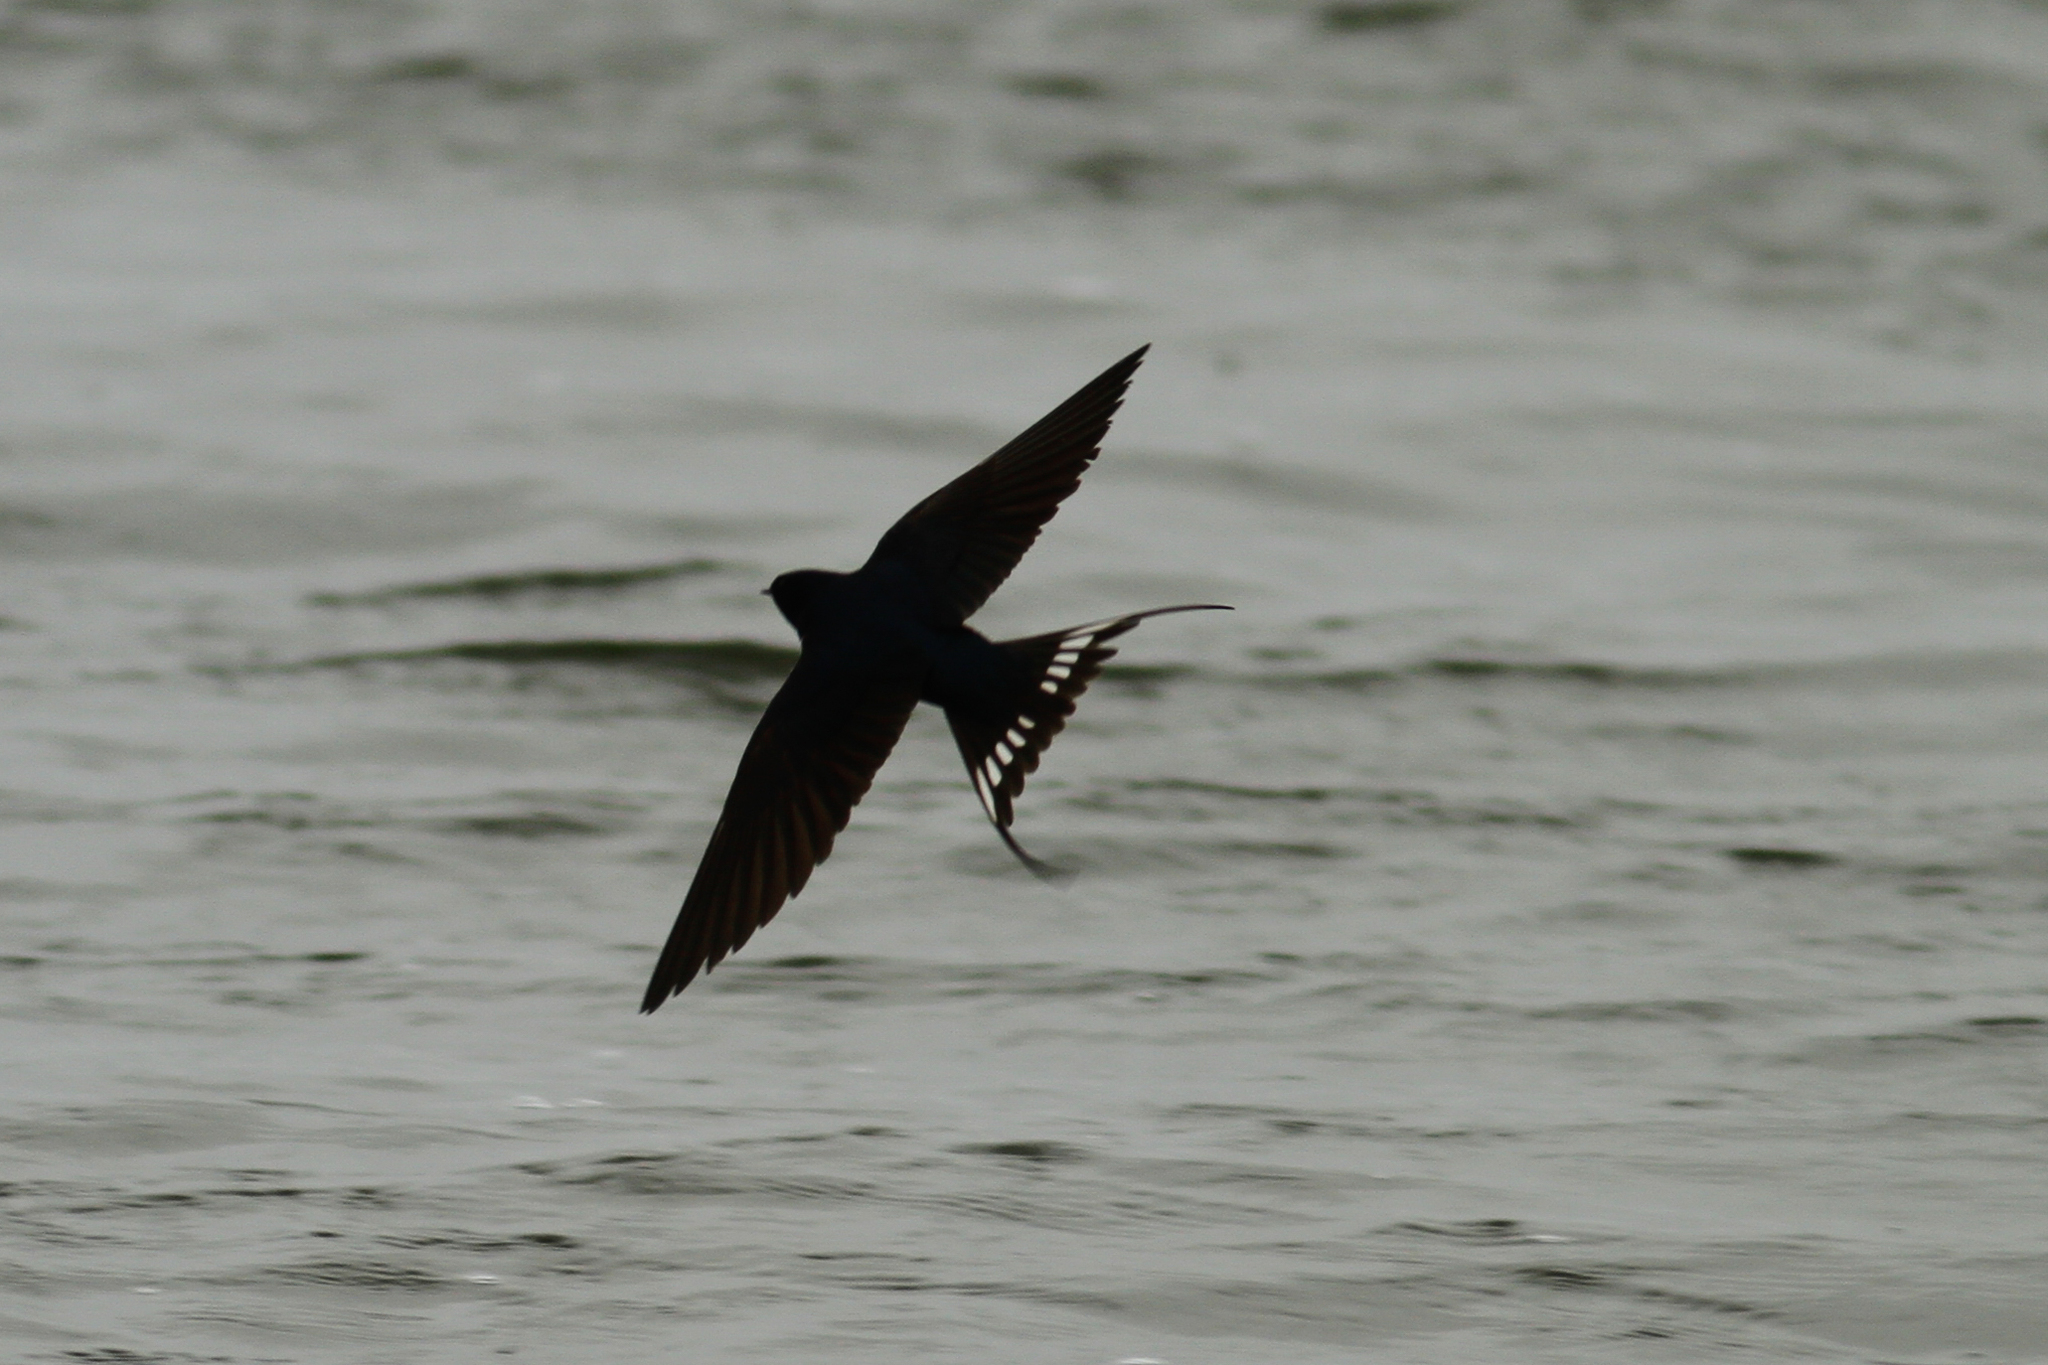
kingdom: Animalia
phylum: Chordata
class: Aves
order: Passeriformes
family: Hirundinidae
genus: Hirundo
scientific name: Hirundo rustica
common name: Barn swallow
